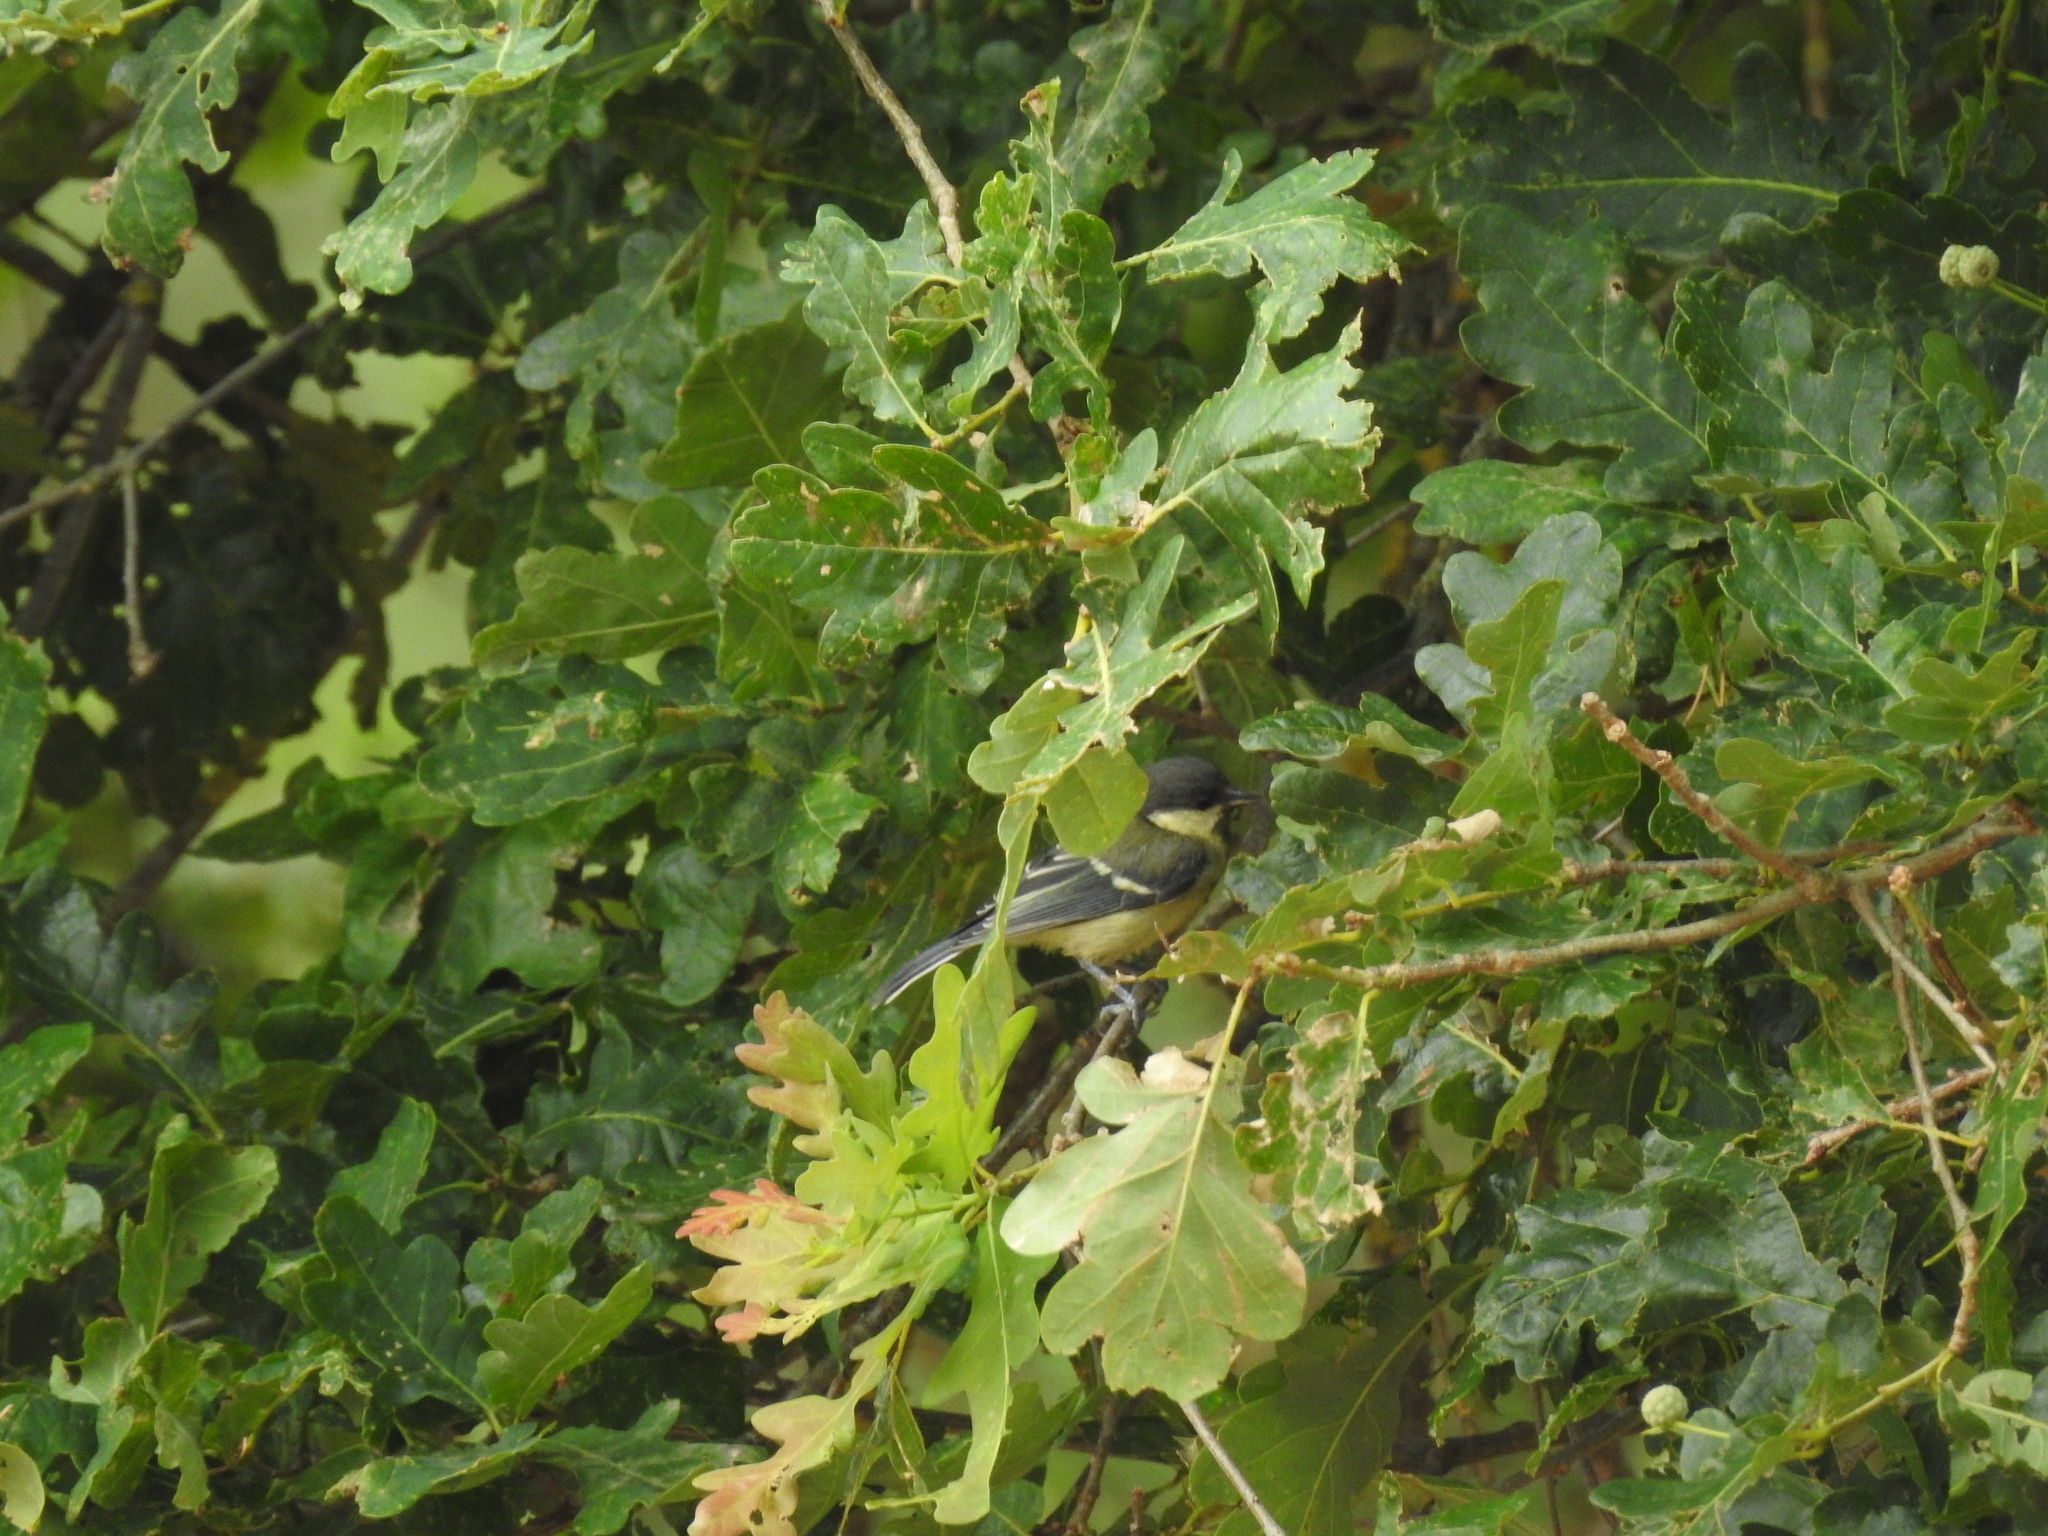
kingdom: Animalia
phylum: Chordata
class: Aves
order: Passeriformes
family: Paridae
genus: Parus
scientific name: Parus major
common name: Great tit
